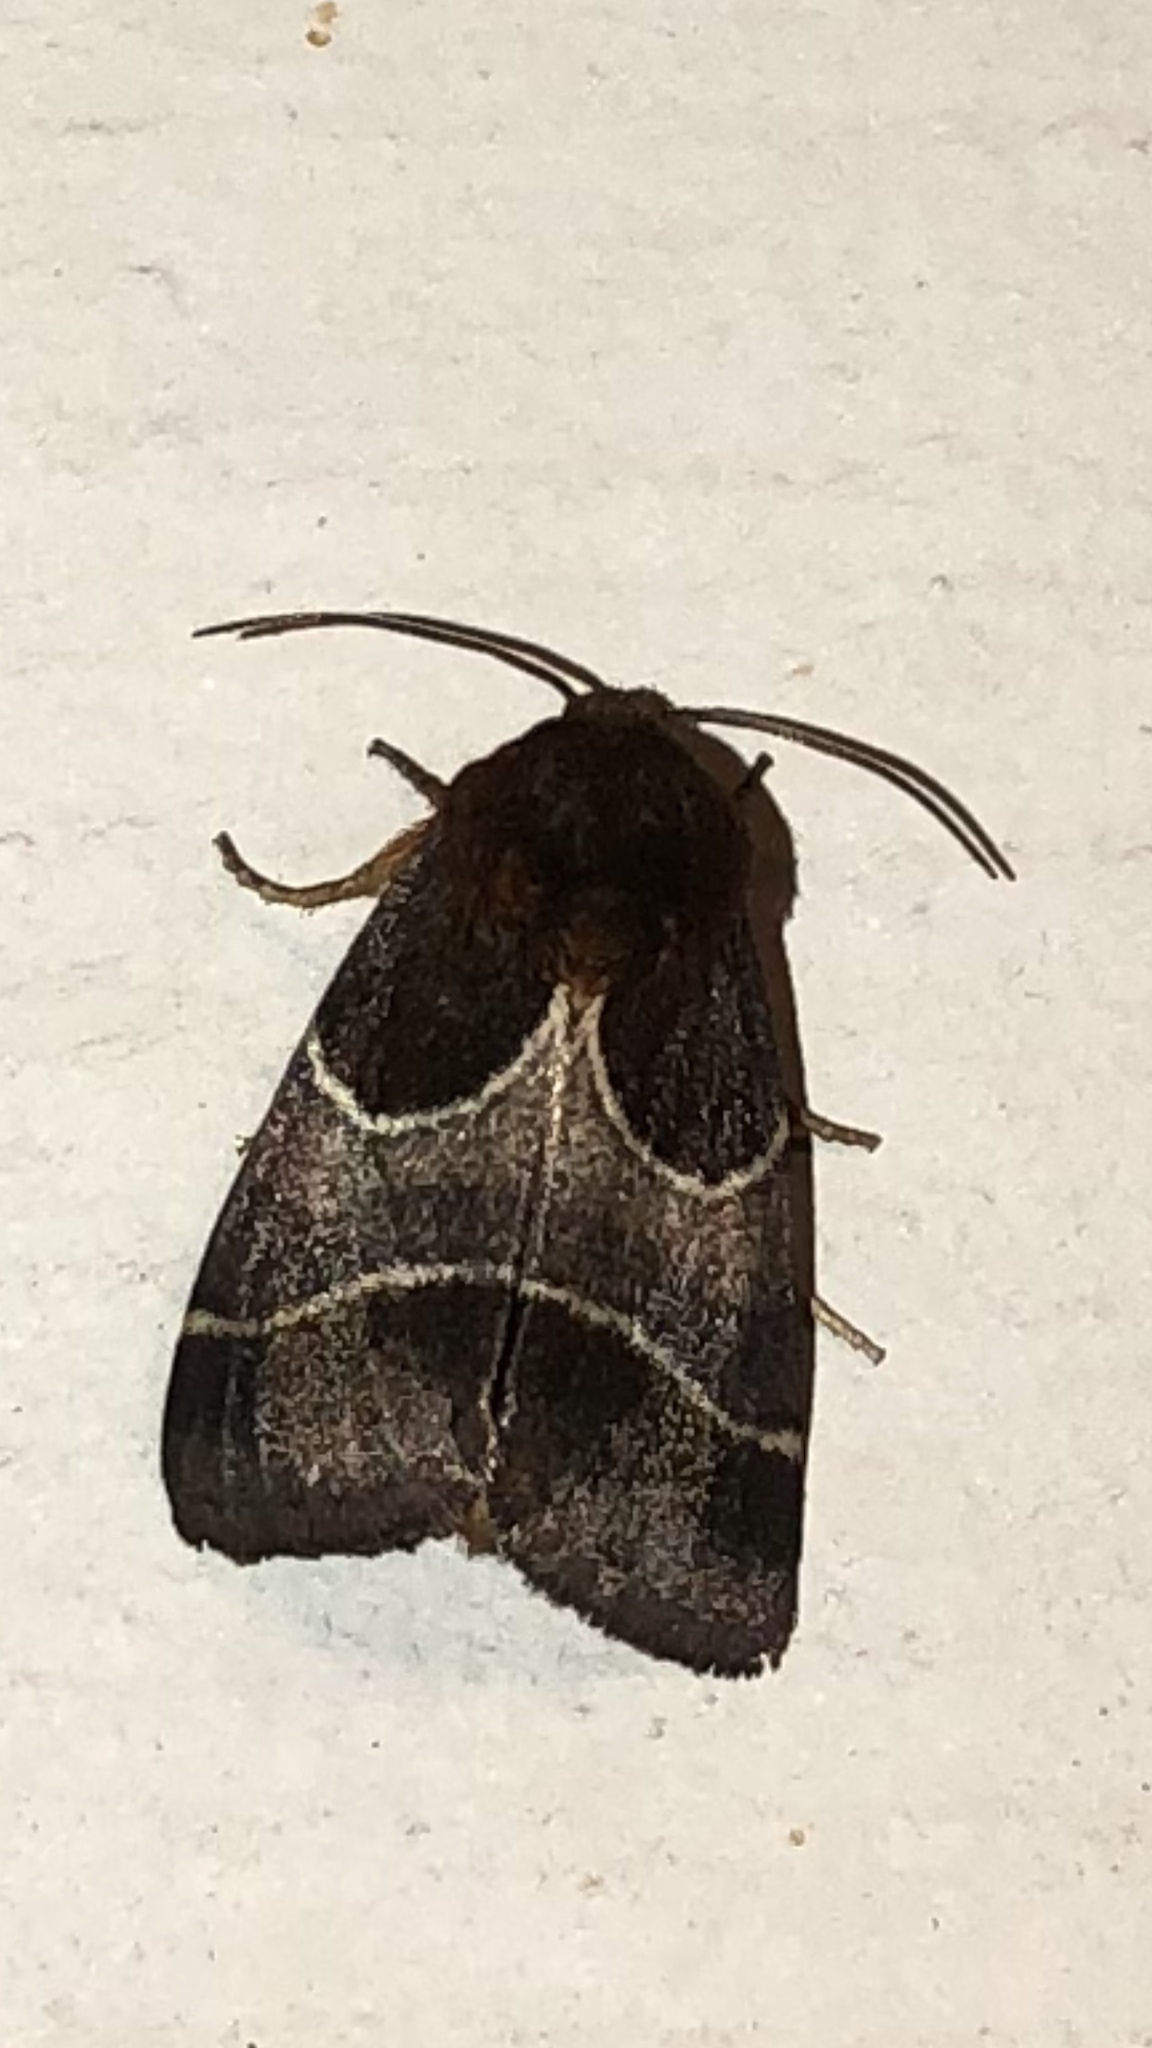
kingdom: Animalia
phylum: Arthropoda
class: Insecta
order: Lepidoptera
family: Noctuidae
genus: Schinia
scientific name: Schinia arcigera
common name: Arcigera flower moth
